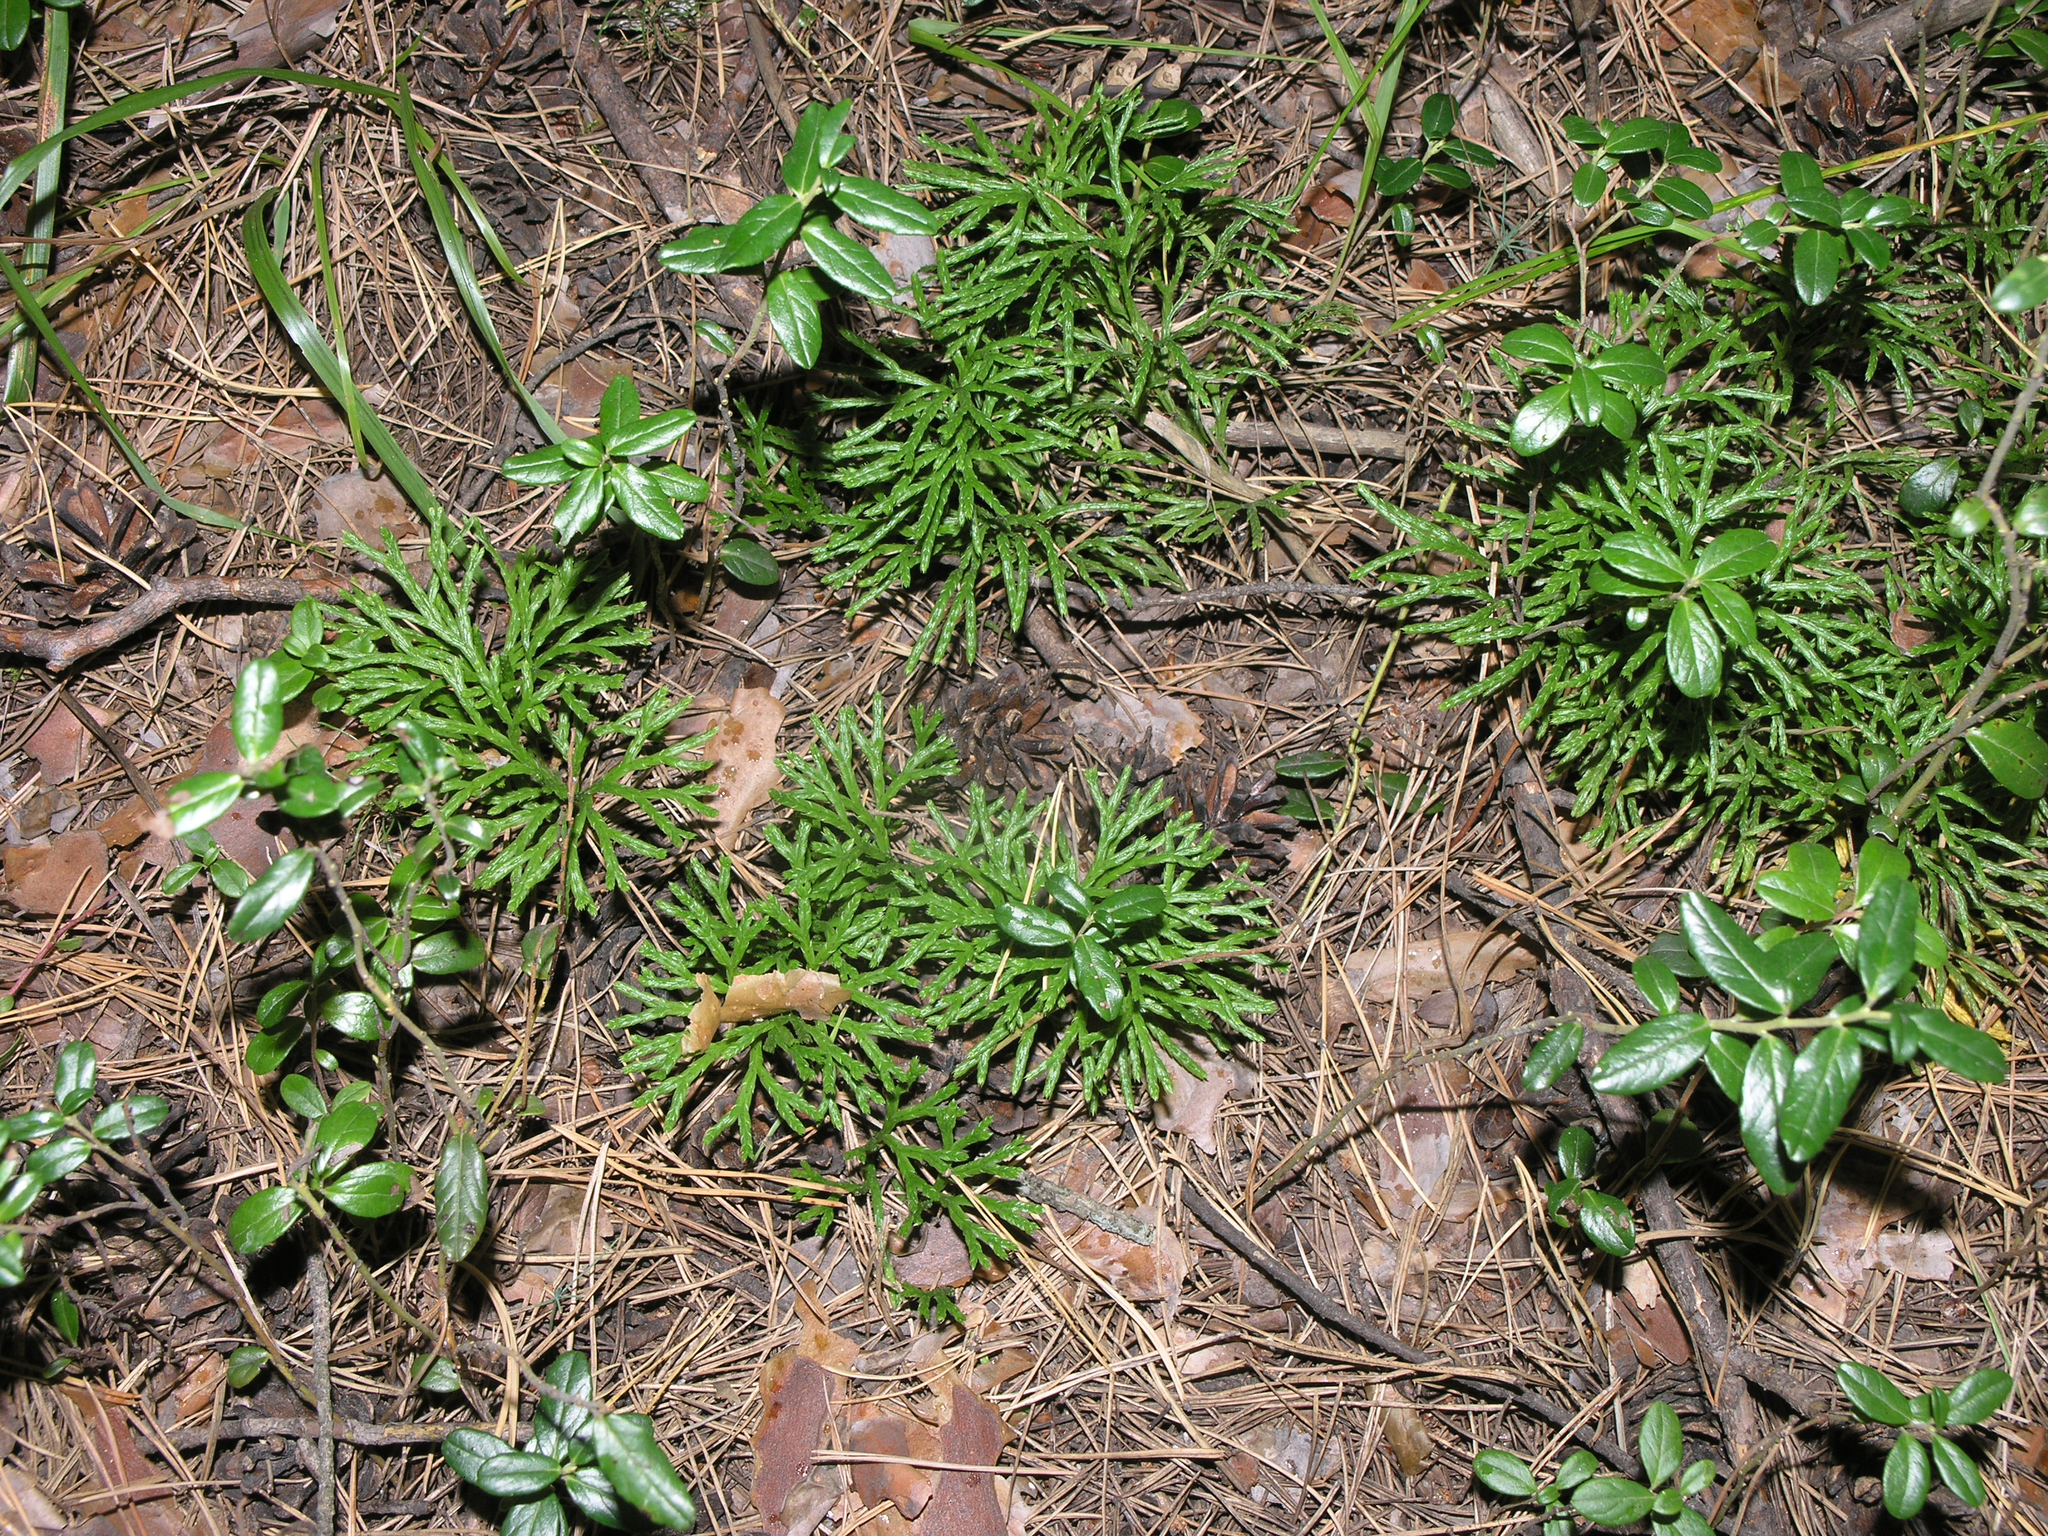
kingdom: Plantae
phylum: Tracheophyta
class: Lycopodiopsida
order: Lycopodiales
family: Lycopodiaceae
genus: Diphasiastrum
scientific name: Diphasiastrum complanatum
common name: Northern running-pine
